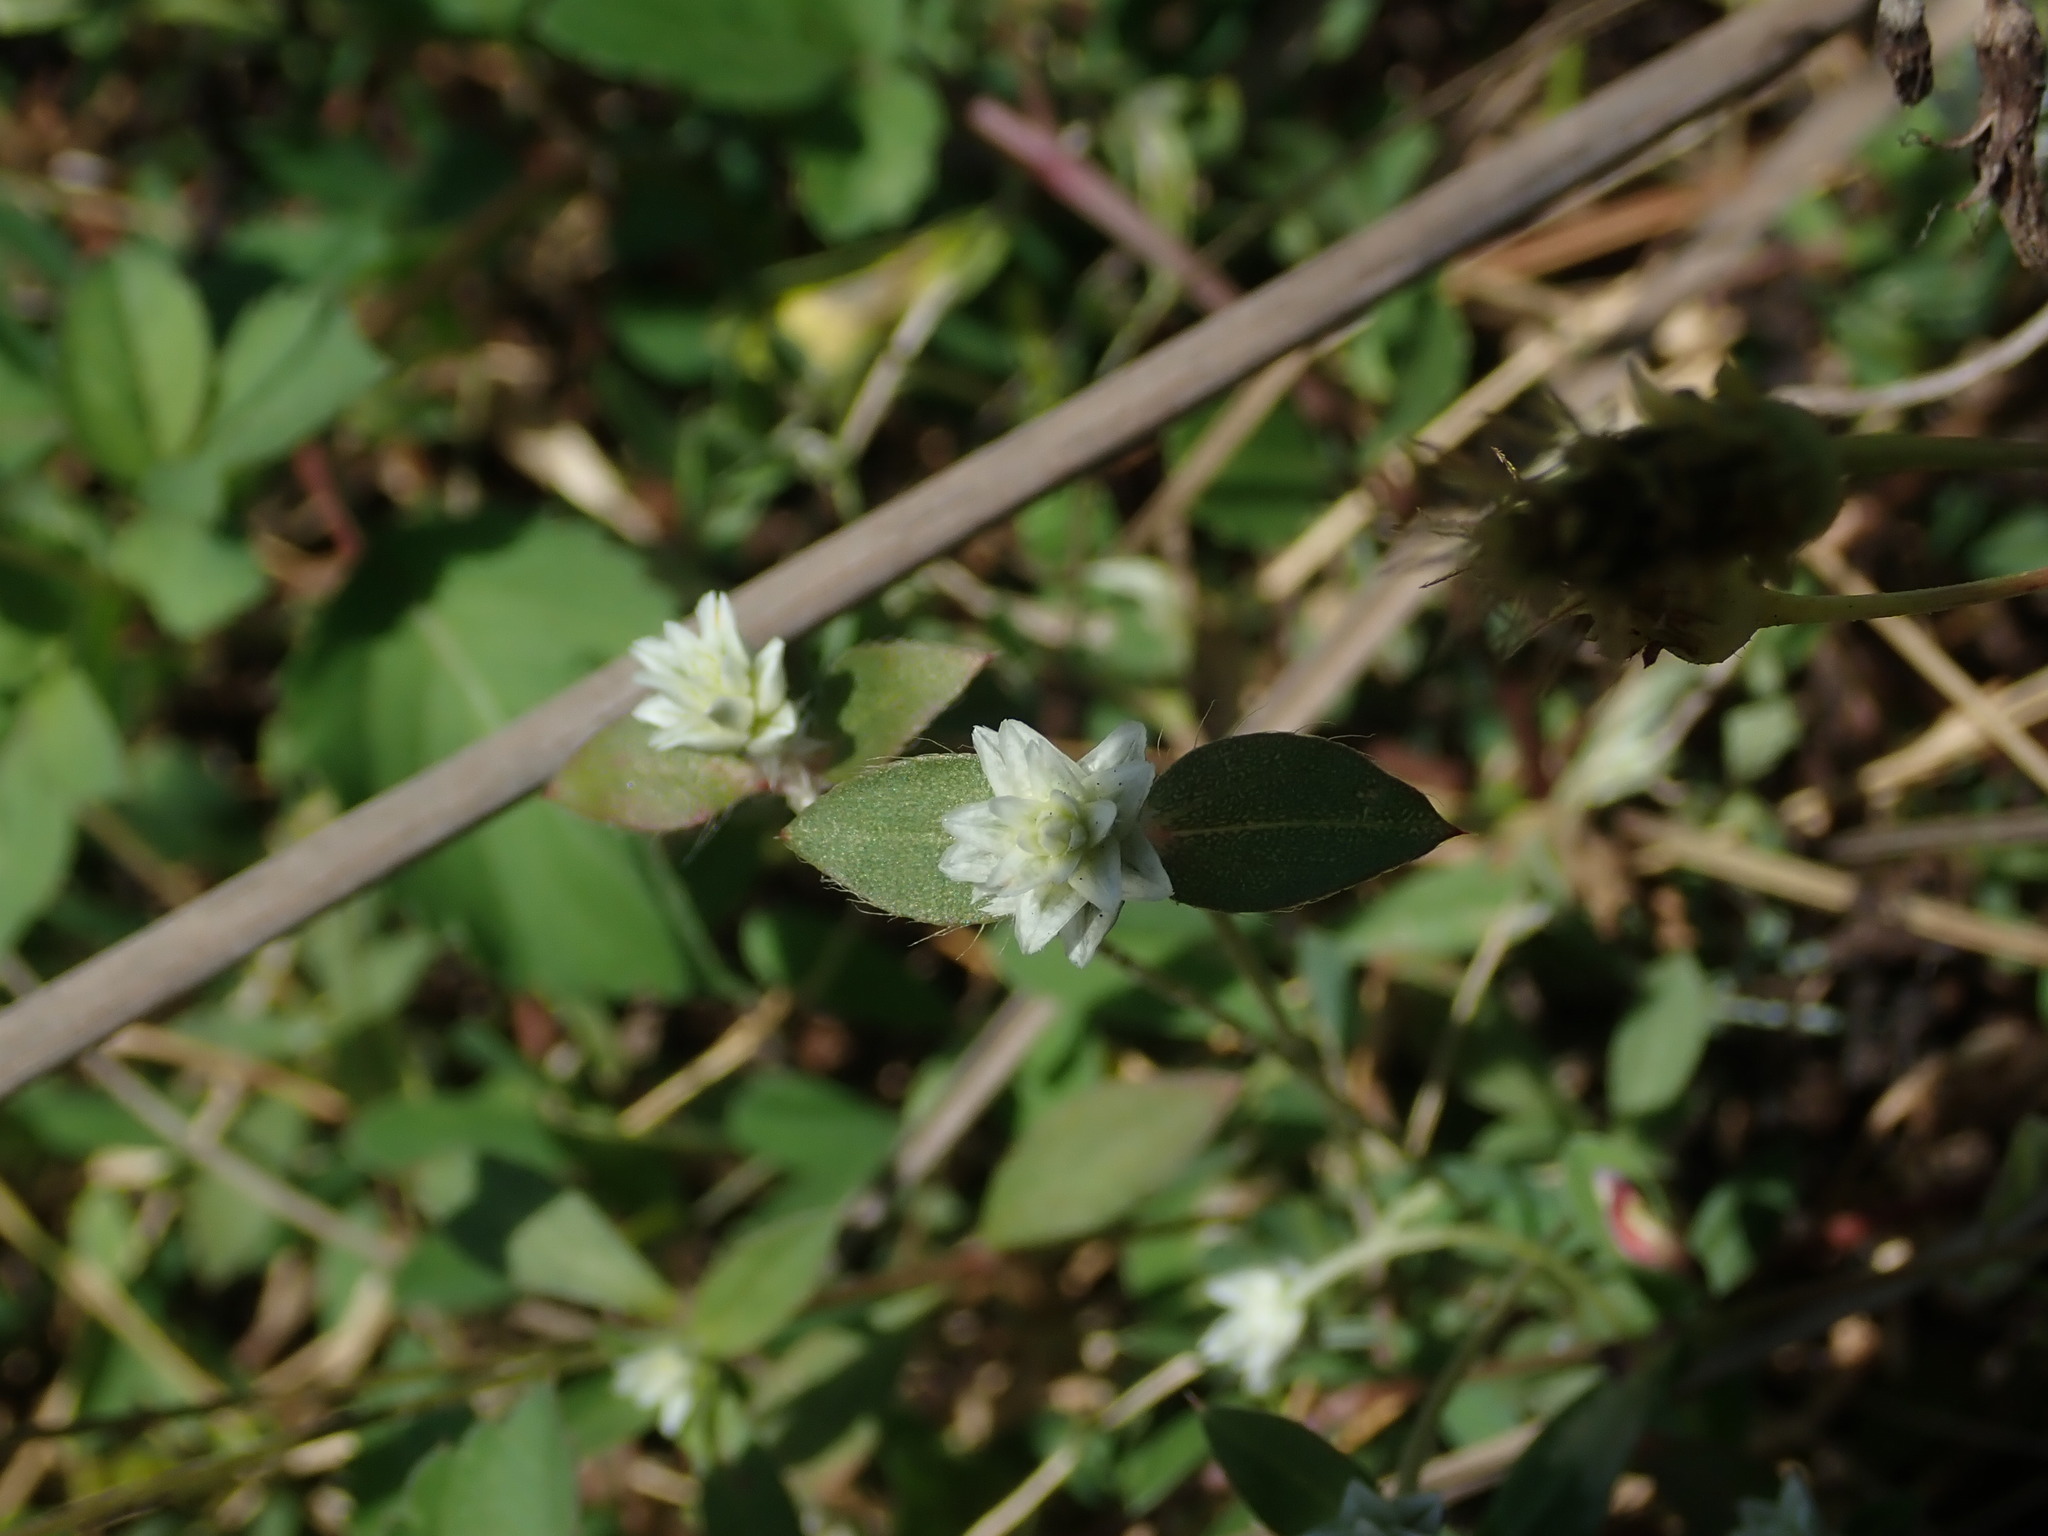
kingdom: Plantae
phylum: Tracheophyta
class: Magnoliopsida
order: Caryophyllales
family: Amaranthaceae
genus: Gomphrena
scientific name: Gomphrena serrata
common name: Arrasa con todo
